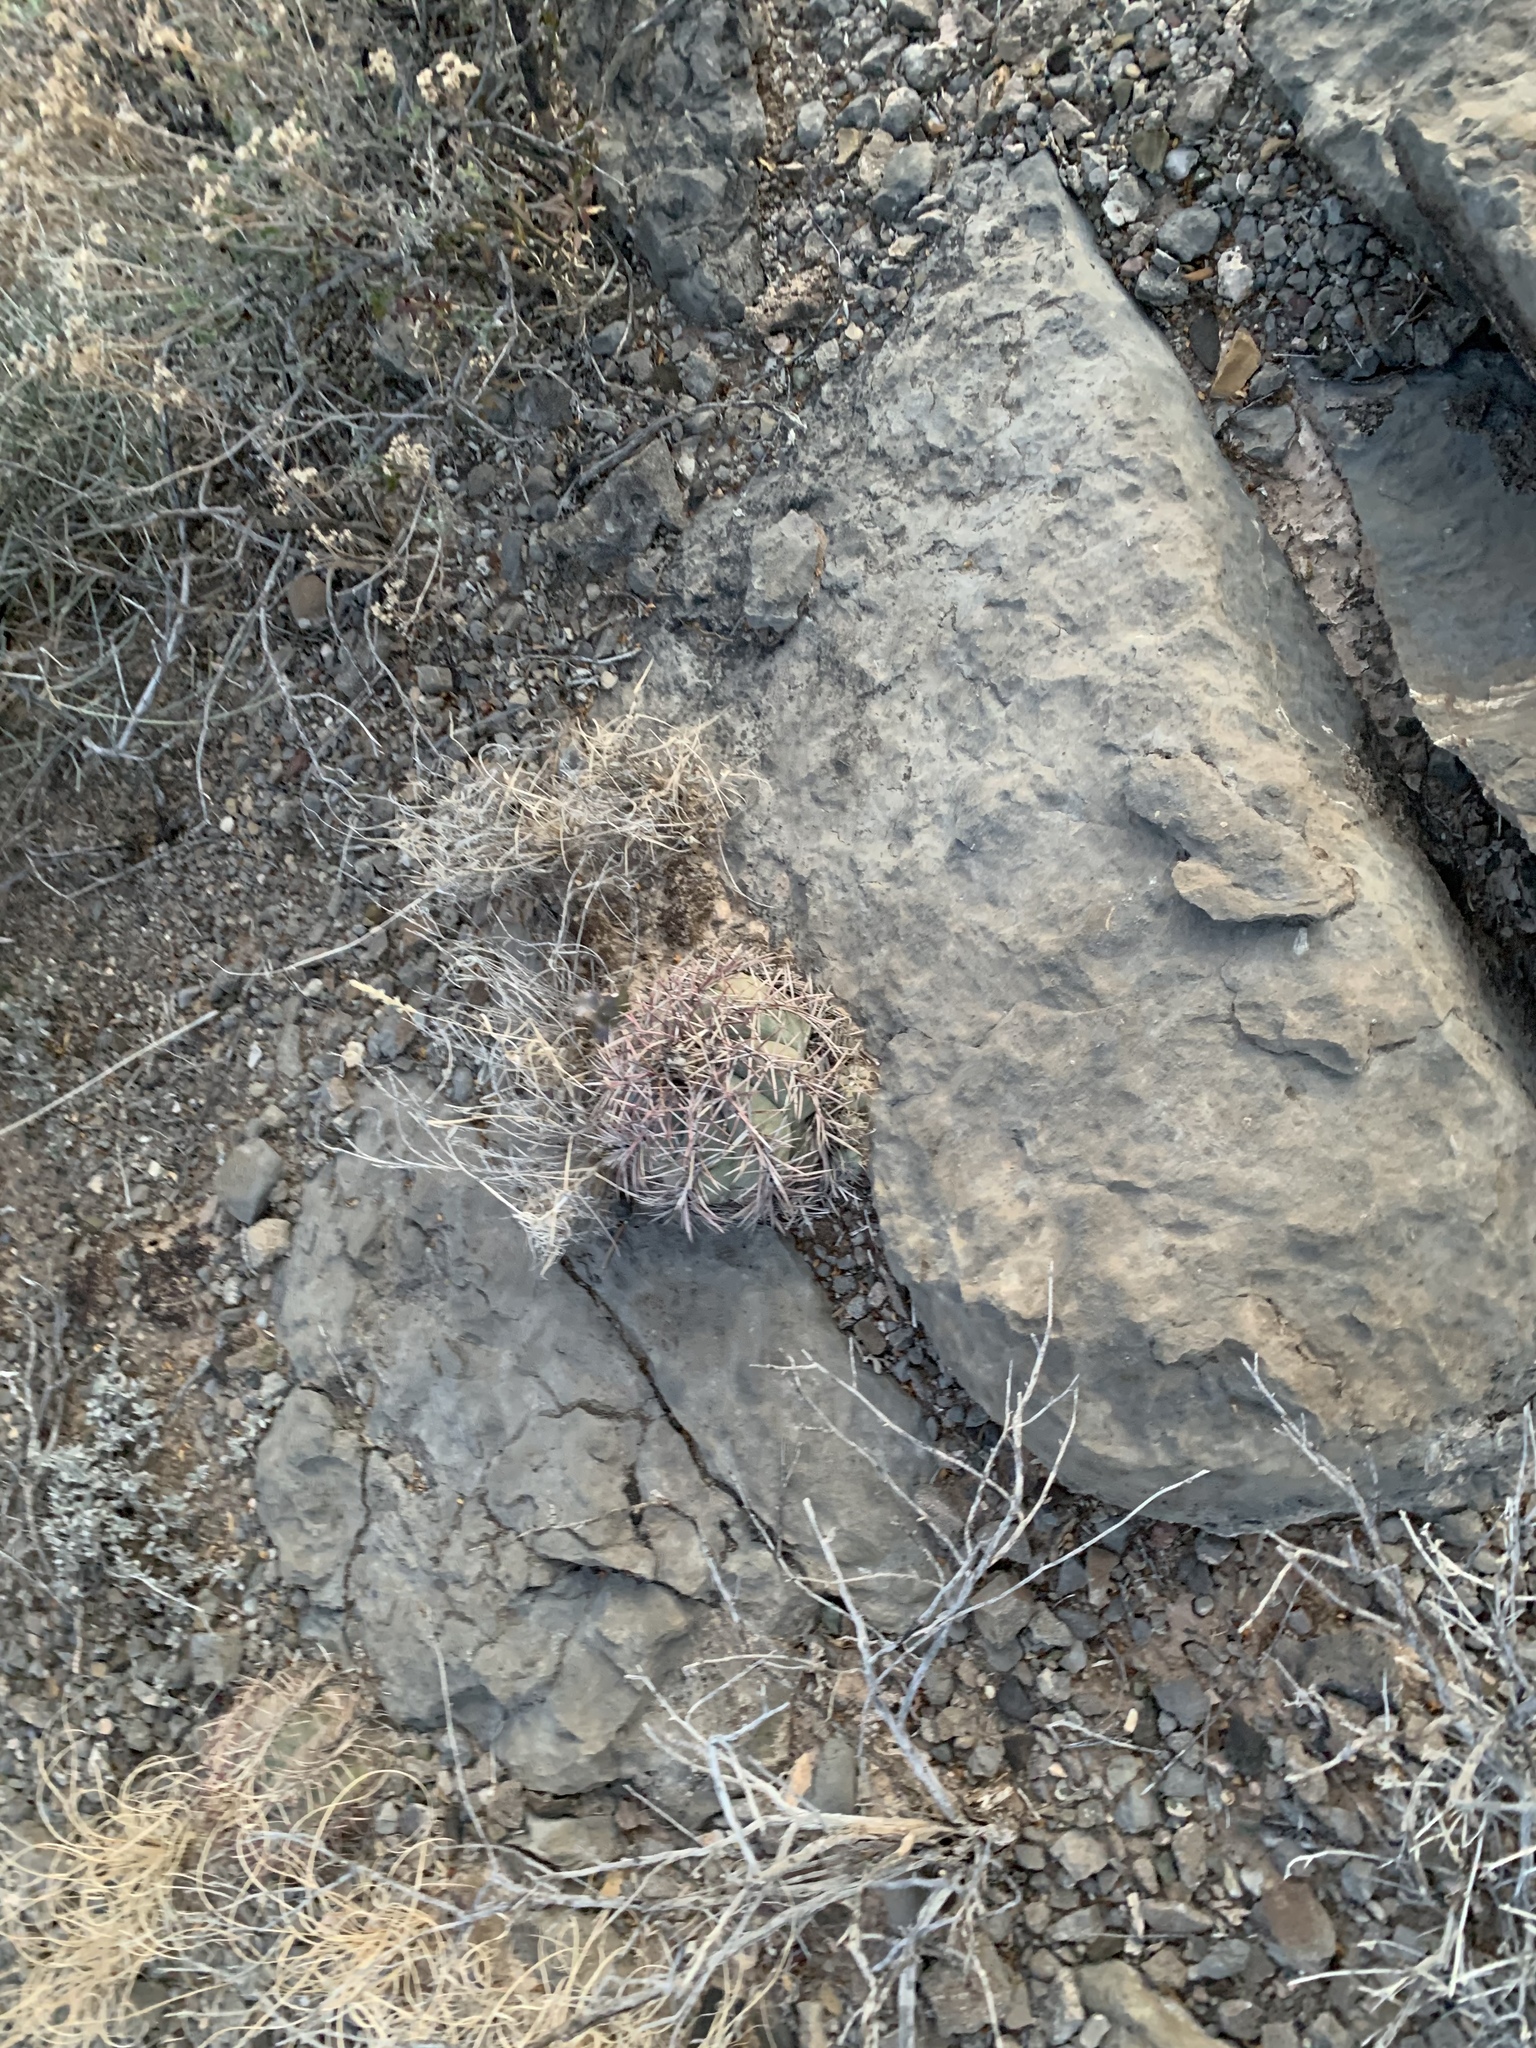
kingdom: Plantae
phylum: Tracheophyta
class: Magnoliopsida
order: Caryophyllales
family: Cactaceae
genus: Echinocactus
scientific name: Echinocactus horizonthalonius
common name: Devilshead
